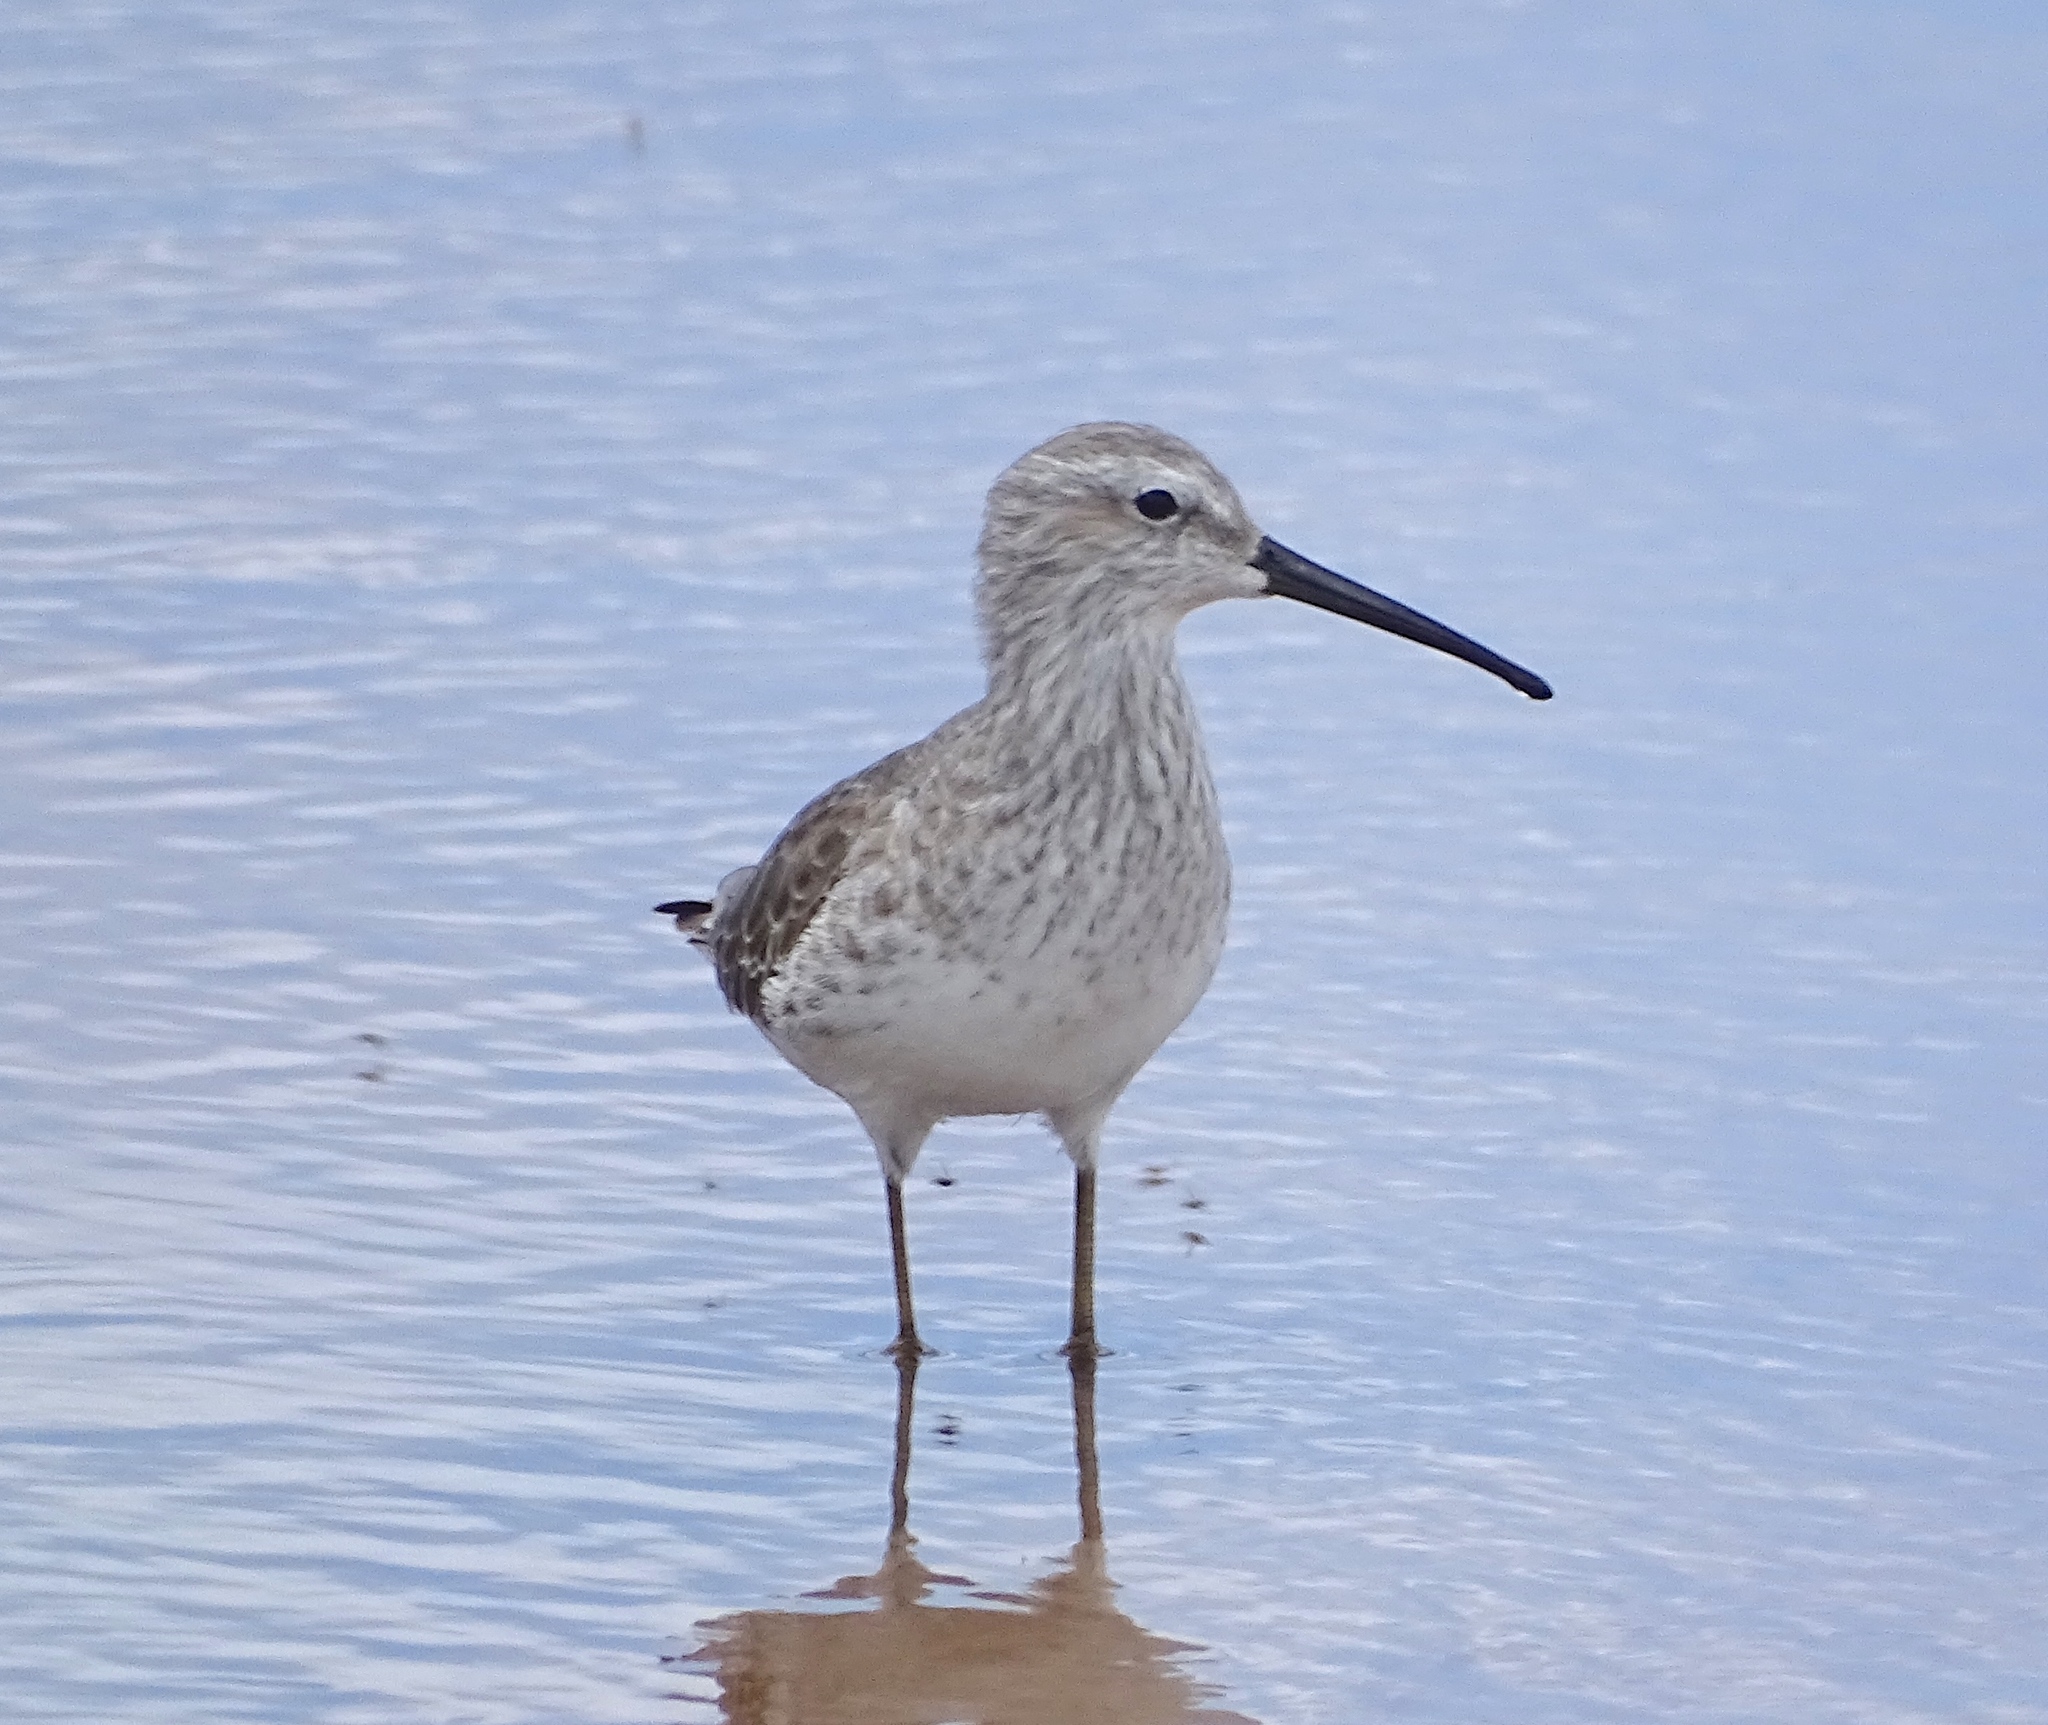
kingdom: Animalia
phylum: Chordata
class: Aves
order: Charadriiformes
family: Scolopacidae
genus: Calidris
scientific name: Calidris himantopus
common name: Stilt sandpiper
